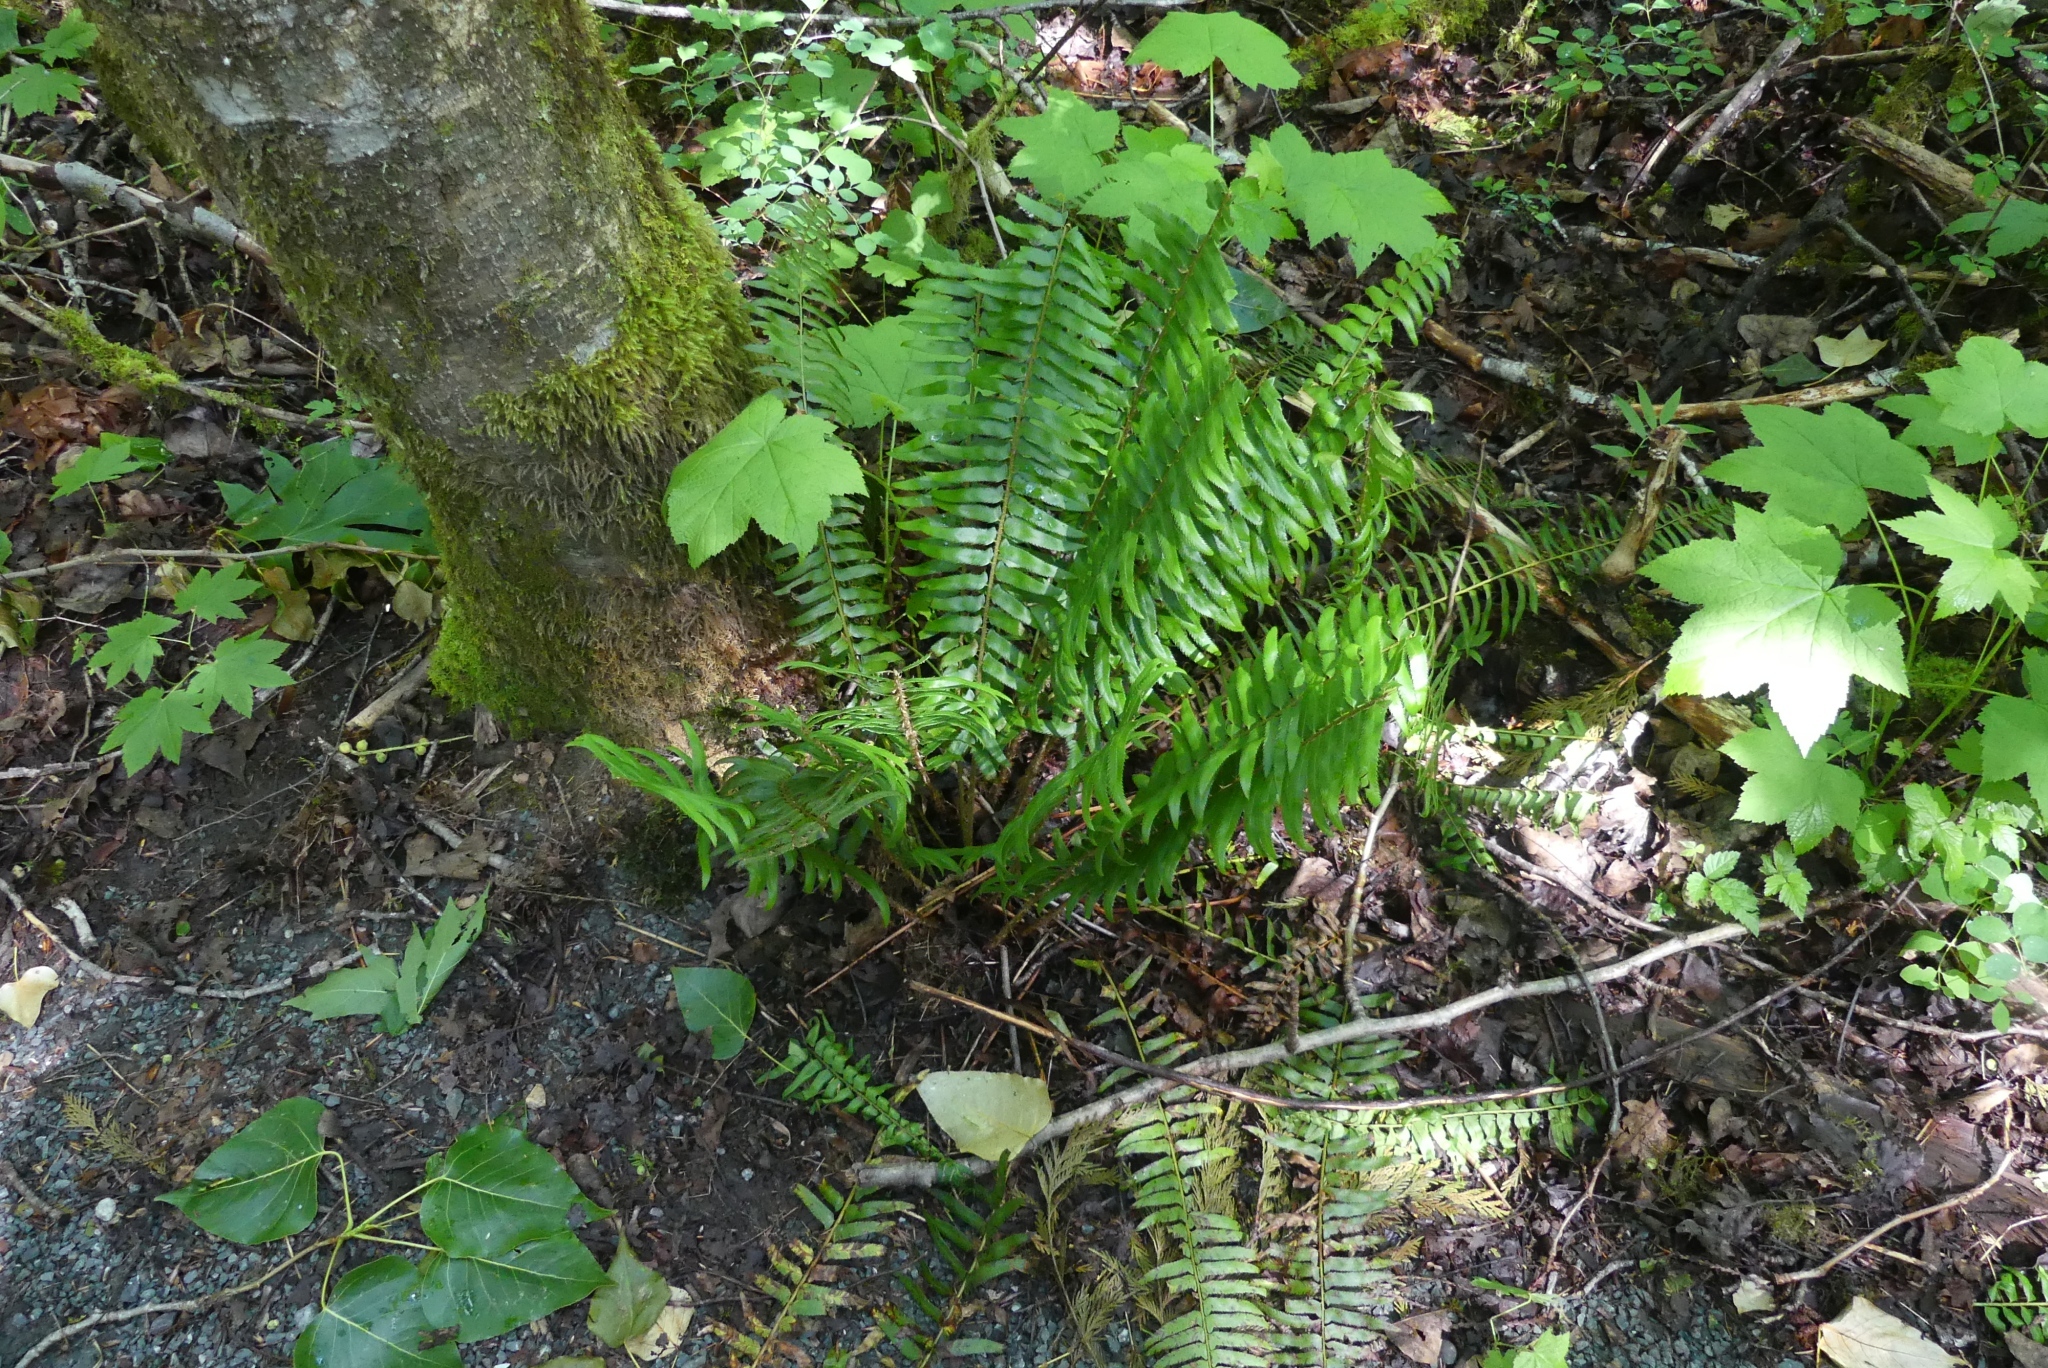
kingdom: Plantae
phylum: Tracheophyta
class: Polypodiopsida
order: Polypodiales
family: Dryopteridaceae
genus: Polystichum
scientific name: Polystichum munitum
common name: Western sword-fern
